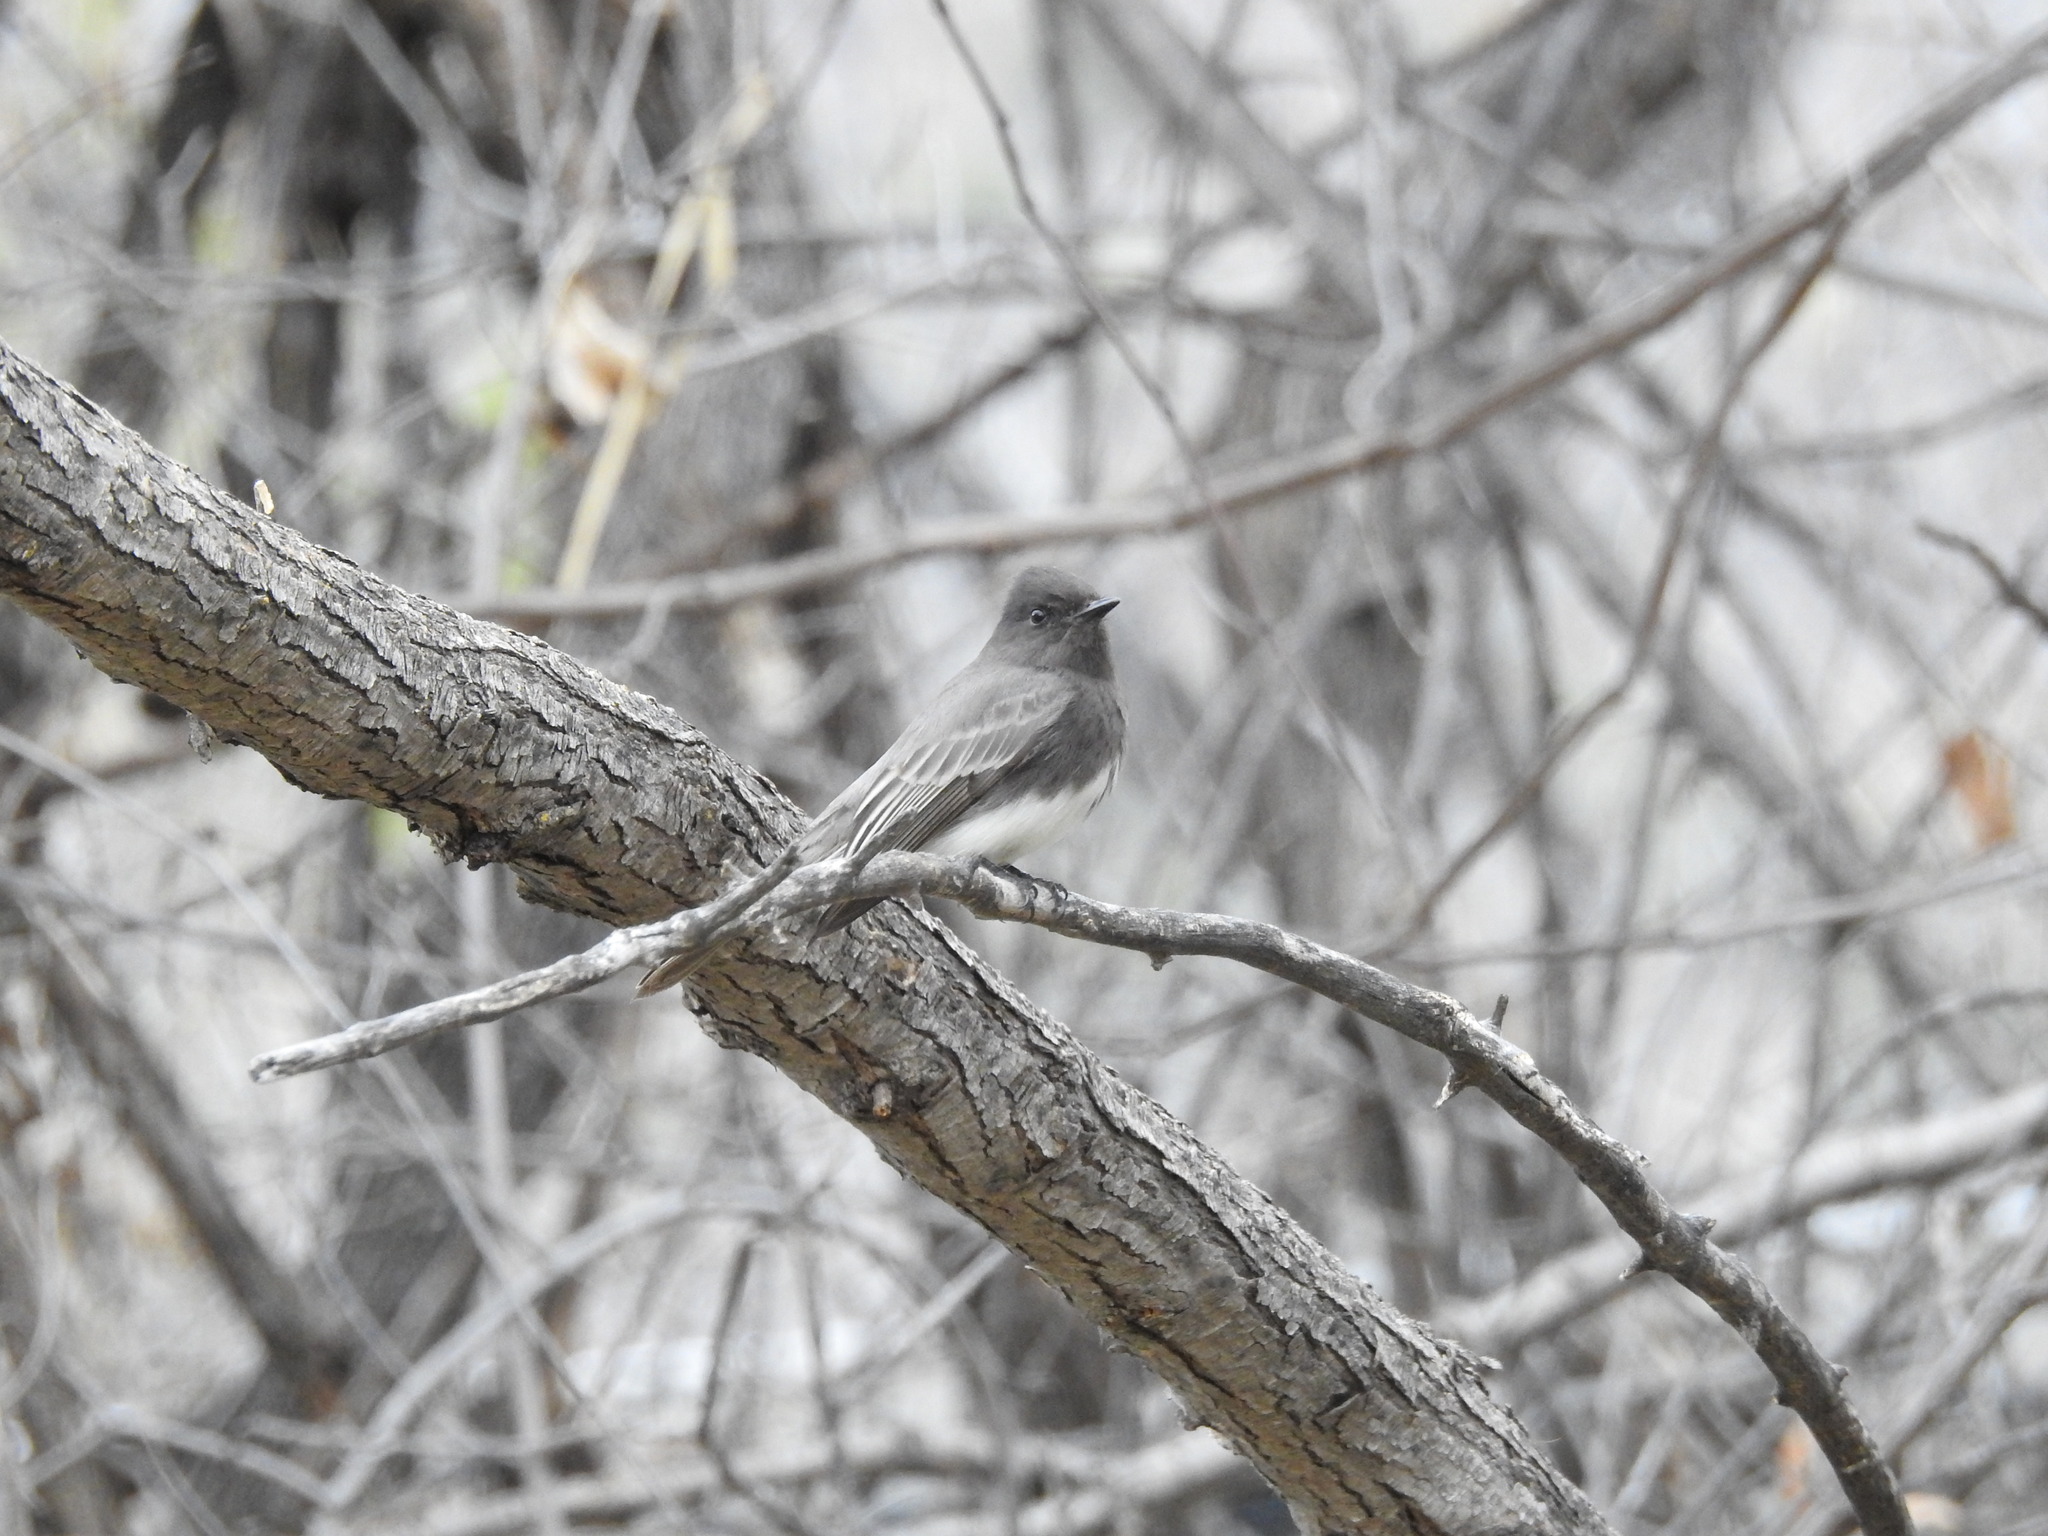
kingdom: Animalia
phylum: Chordata
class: Aves
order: Passeriformes
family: Tyrannidae
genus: Sayornis
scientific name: Sayornis nigricans
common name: Black phoebe
